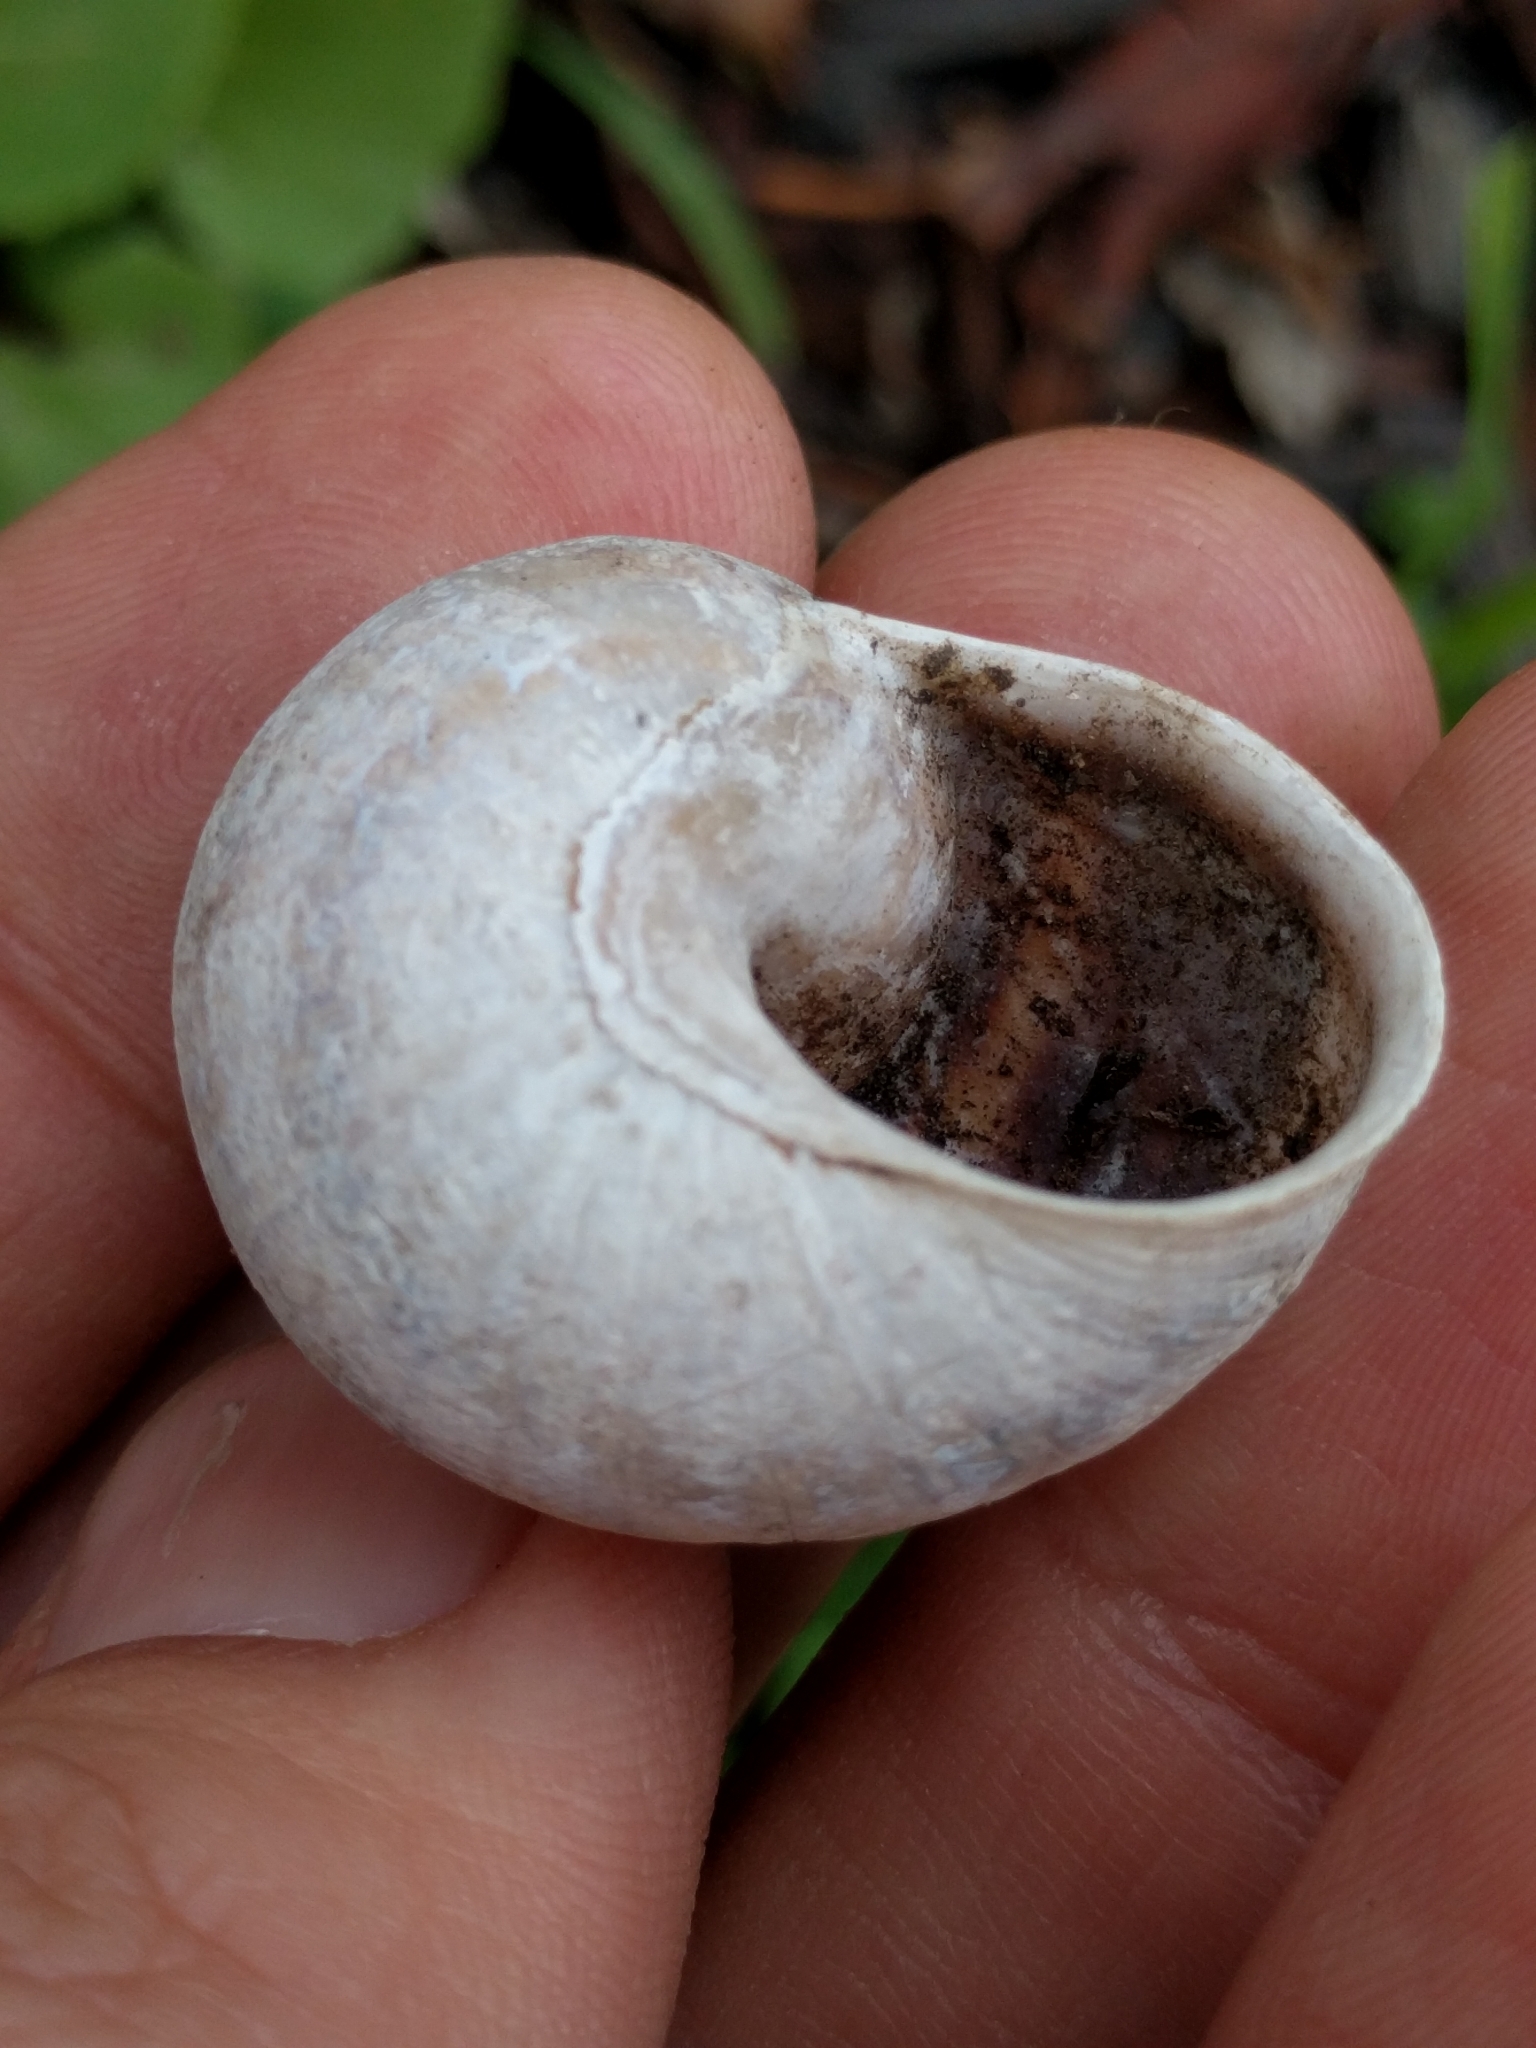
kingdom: Animalia
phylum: Mollusca
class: Gastropoda
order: Stylommatophora
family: Helicidae
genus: Cornu
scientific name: Cornu aspersum
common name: Brown garden snail
